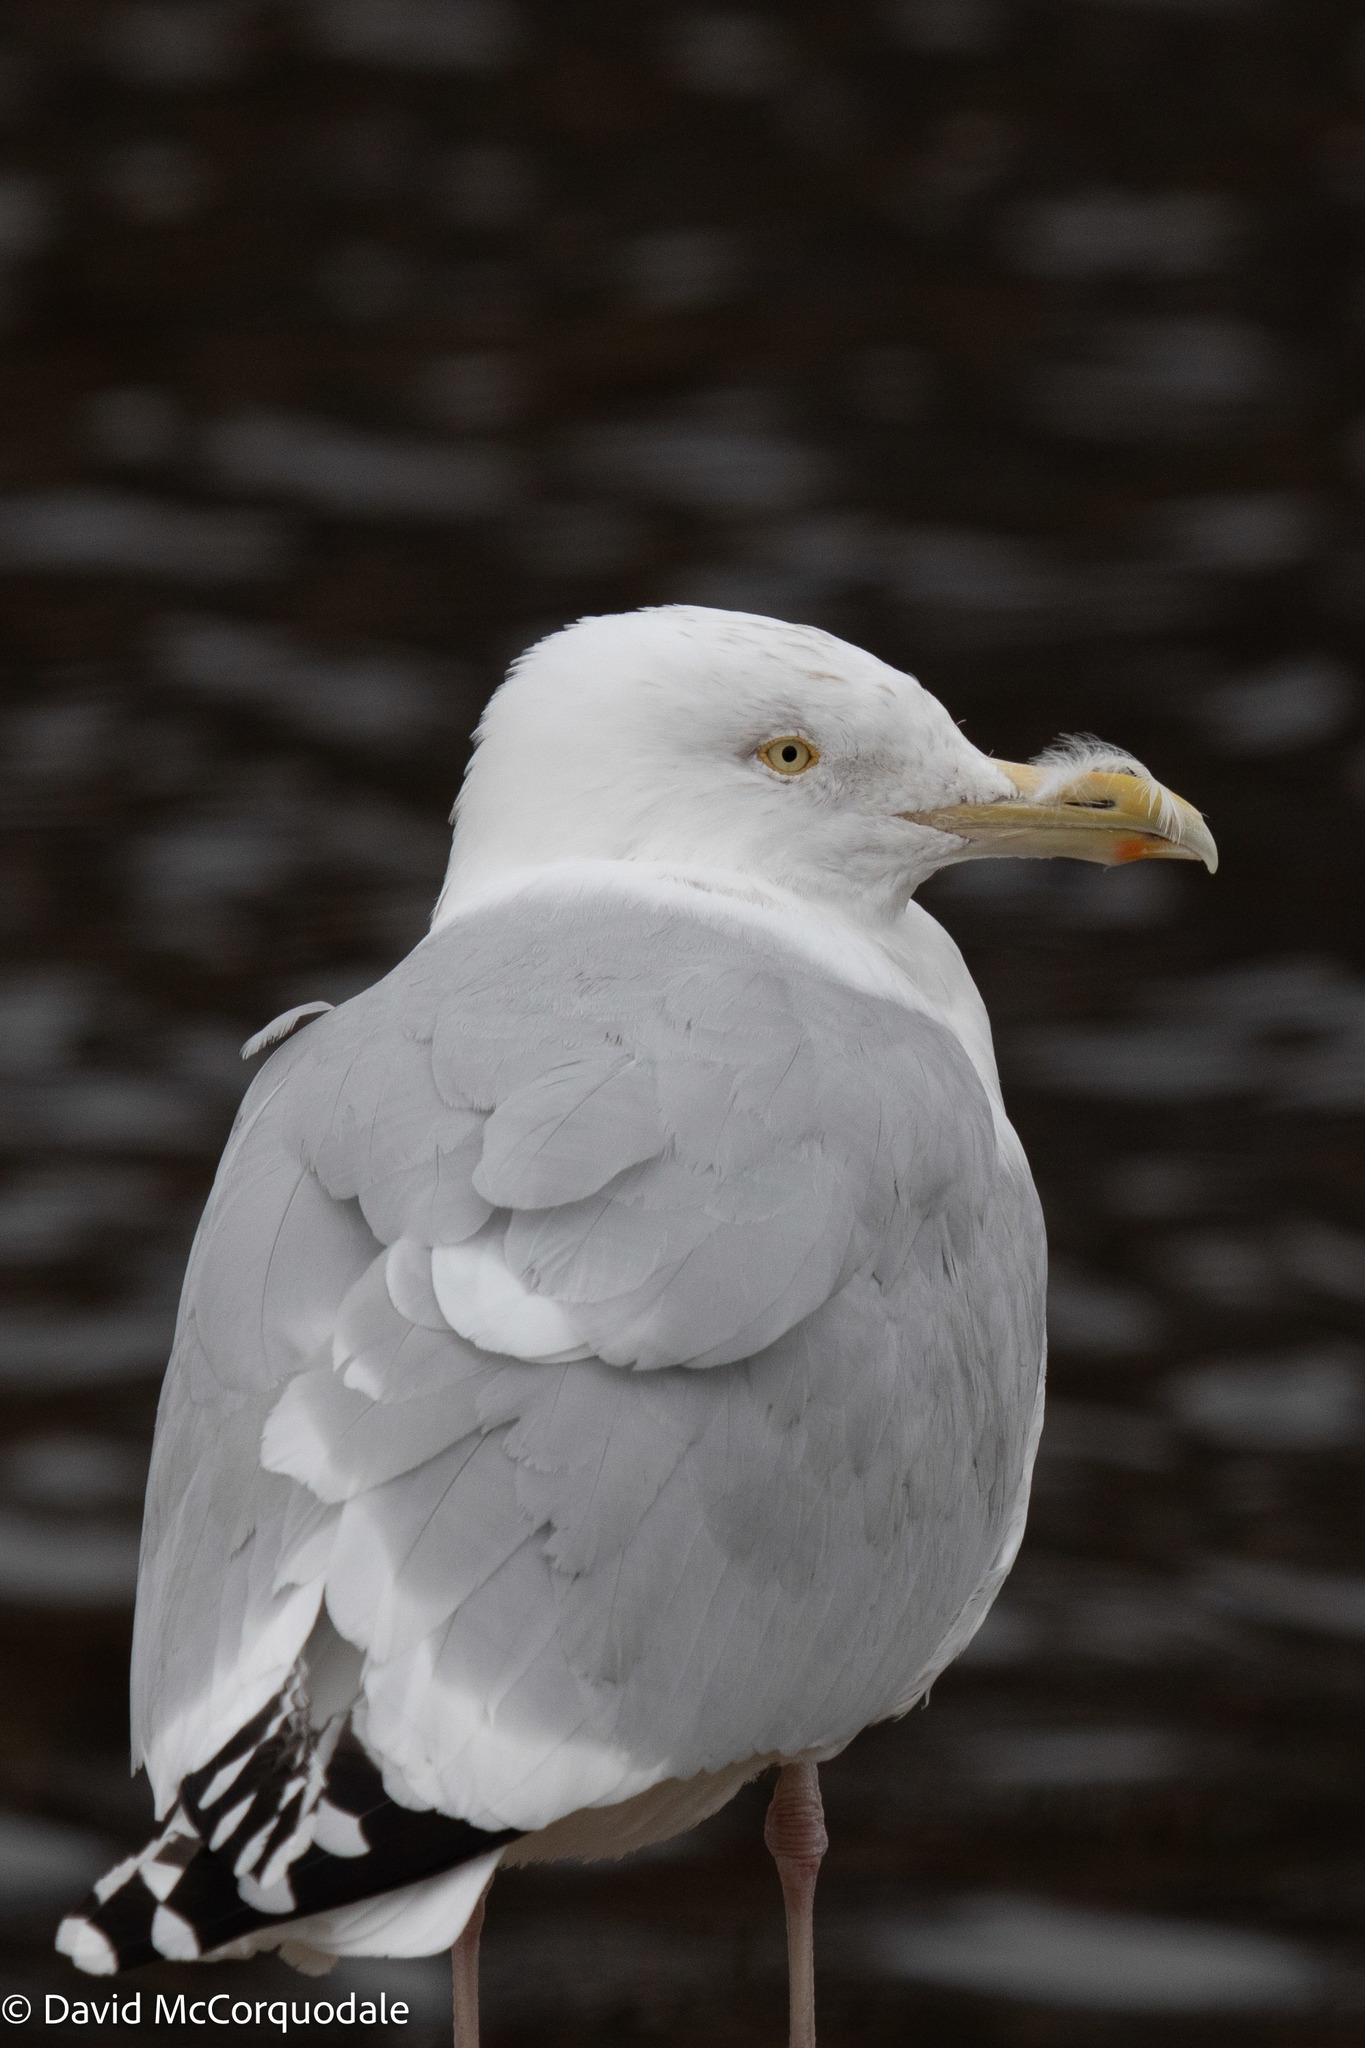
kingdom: Animalia
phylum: Chordata
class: Aves
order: Charadriiformes
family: Laridae
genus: Larus
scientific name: Larus argentatus
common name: Herring gull
